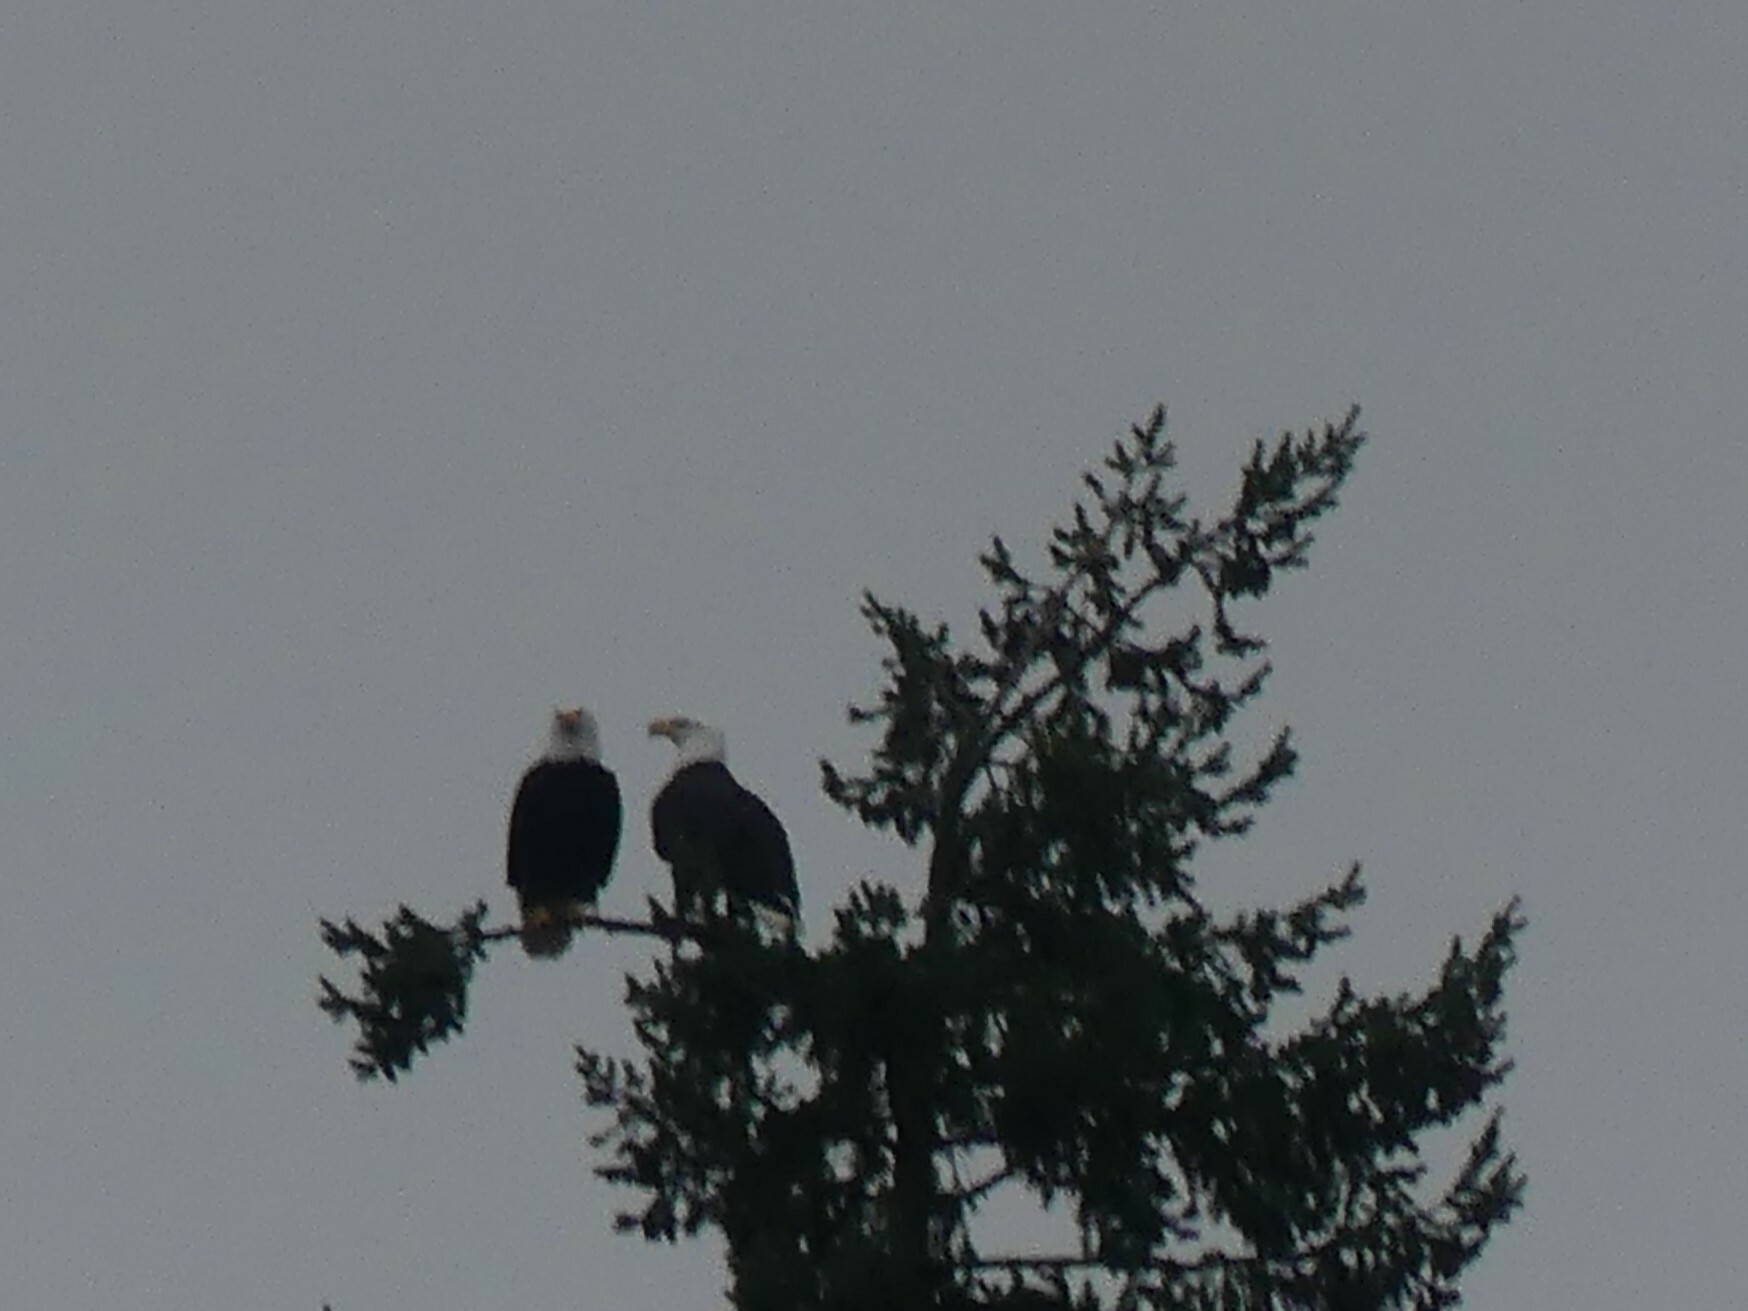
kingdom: Animalia
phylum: Chordata
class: Aves
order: Accipitriformes
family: Accipitridae
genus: Haliaeetus
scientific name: Haliaeetus leucocephalus
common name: Bald eagle
